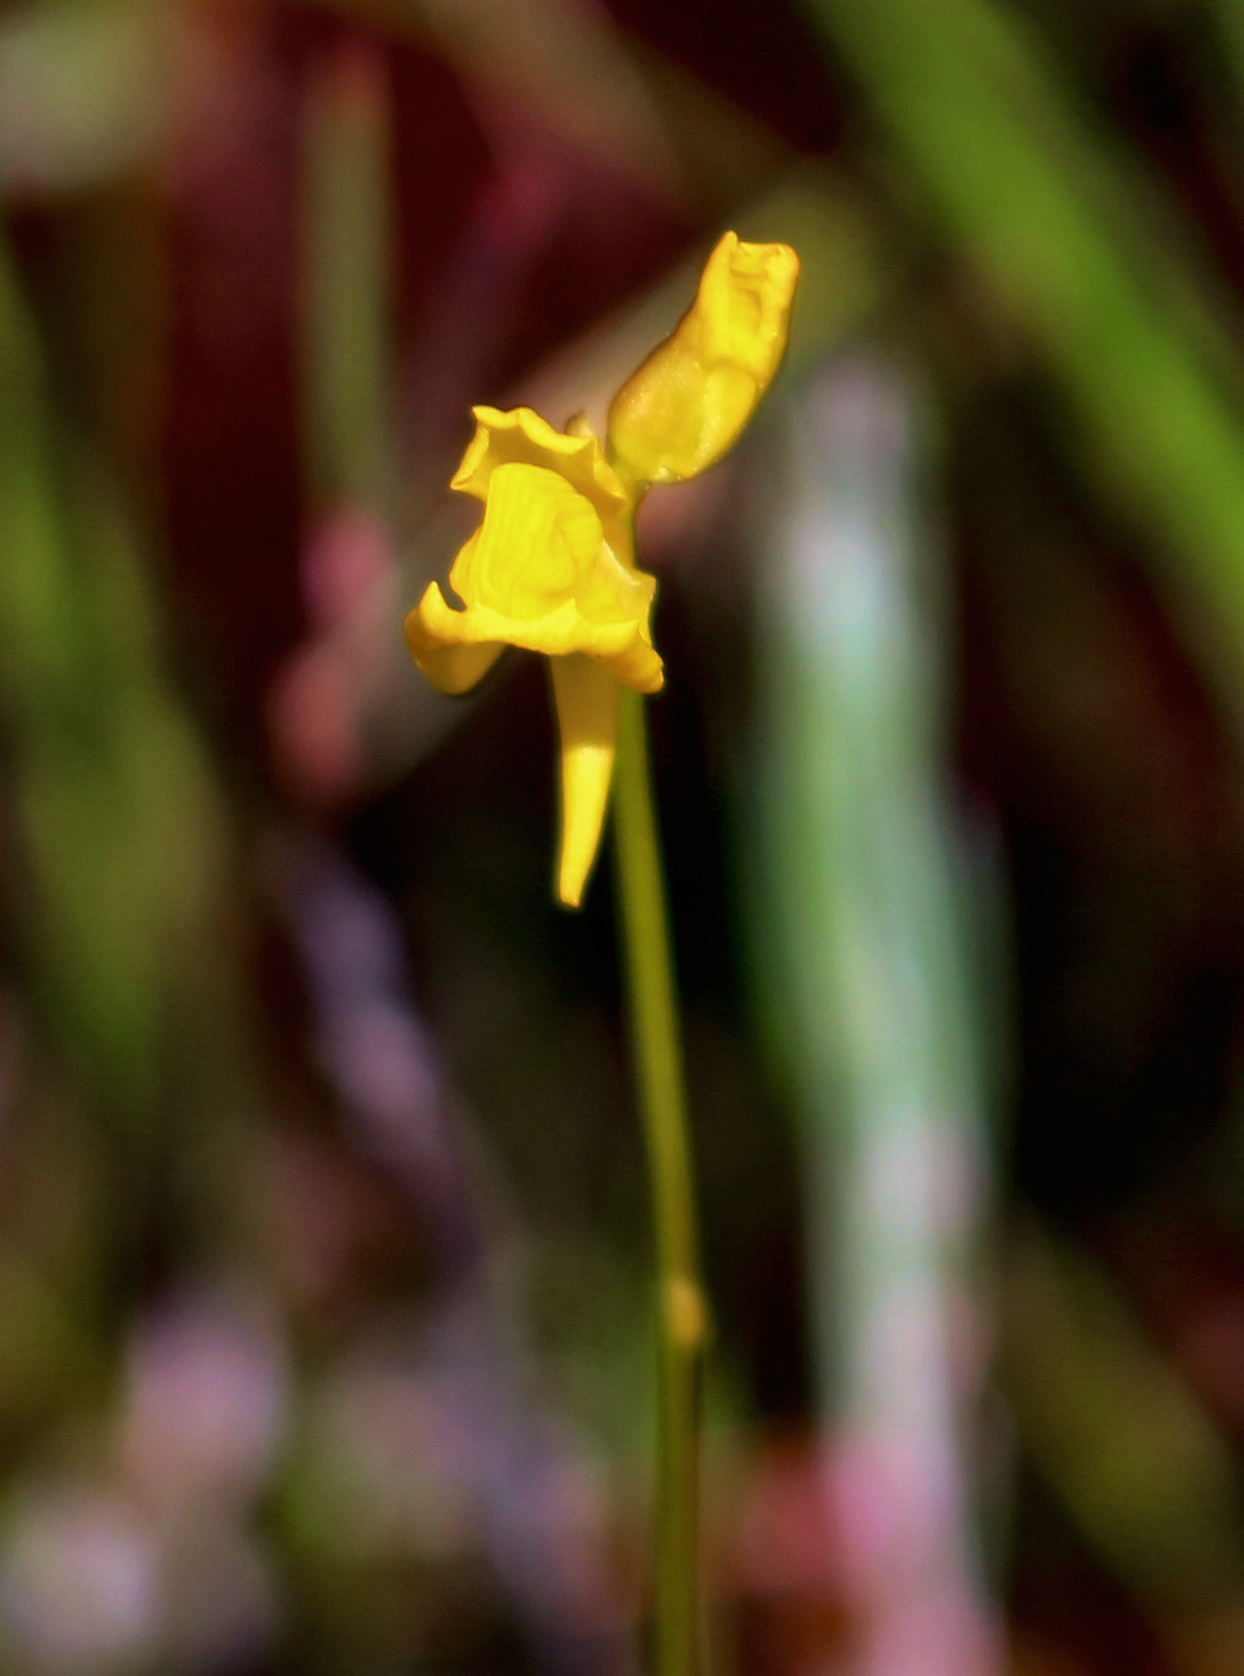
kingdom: Plantae
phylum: Tracheophyta
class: Magnoliopsida
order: Lamiales
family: Lentibulariaceae
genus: Utricularia
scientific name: Utricularia cornuta
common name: Horned bladderwort
